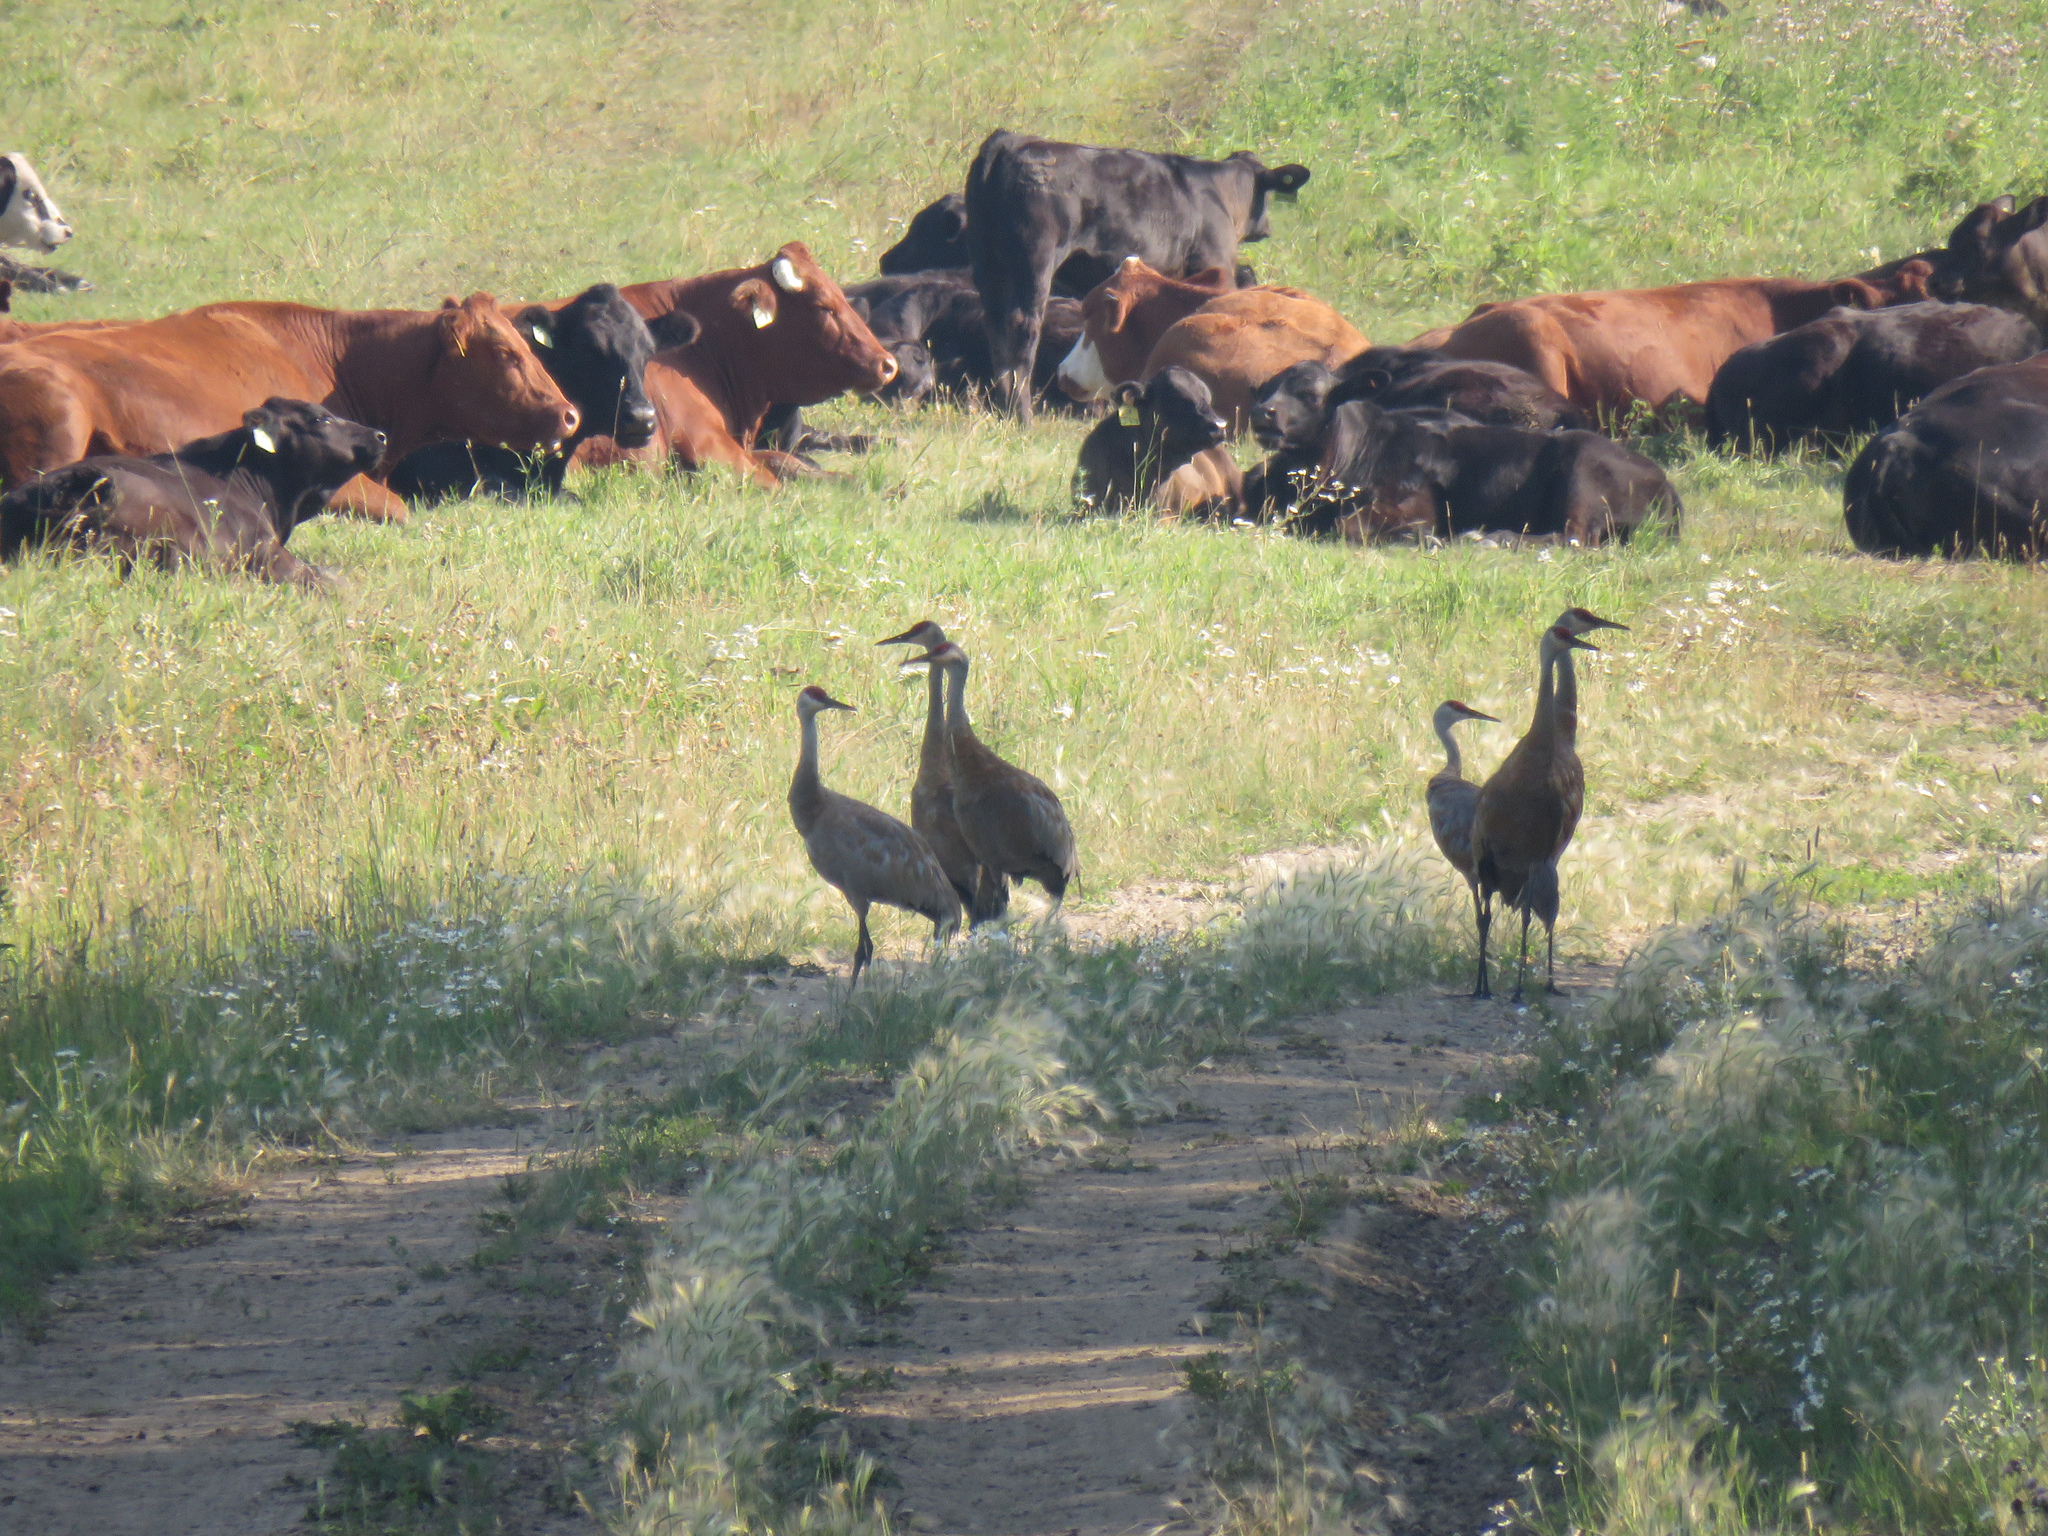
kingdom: Animalia
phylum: Chordata
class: Aves
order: Gruiformes
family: Gruidae
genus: Grus
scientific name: Grus canadensis
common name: Sandhill crane
